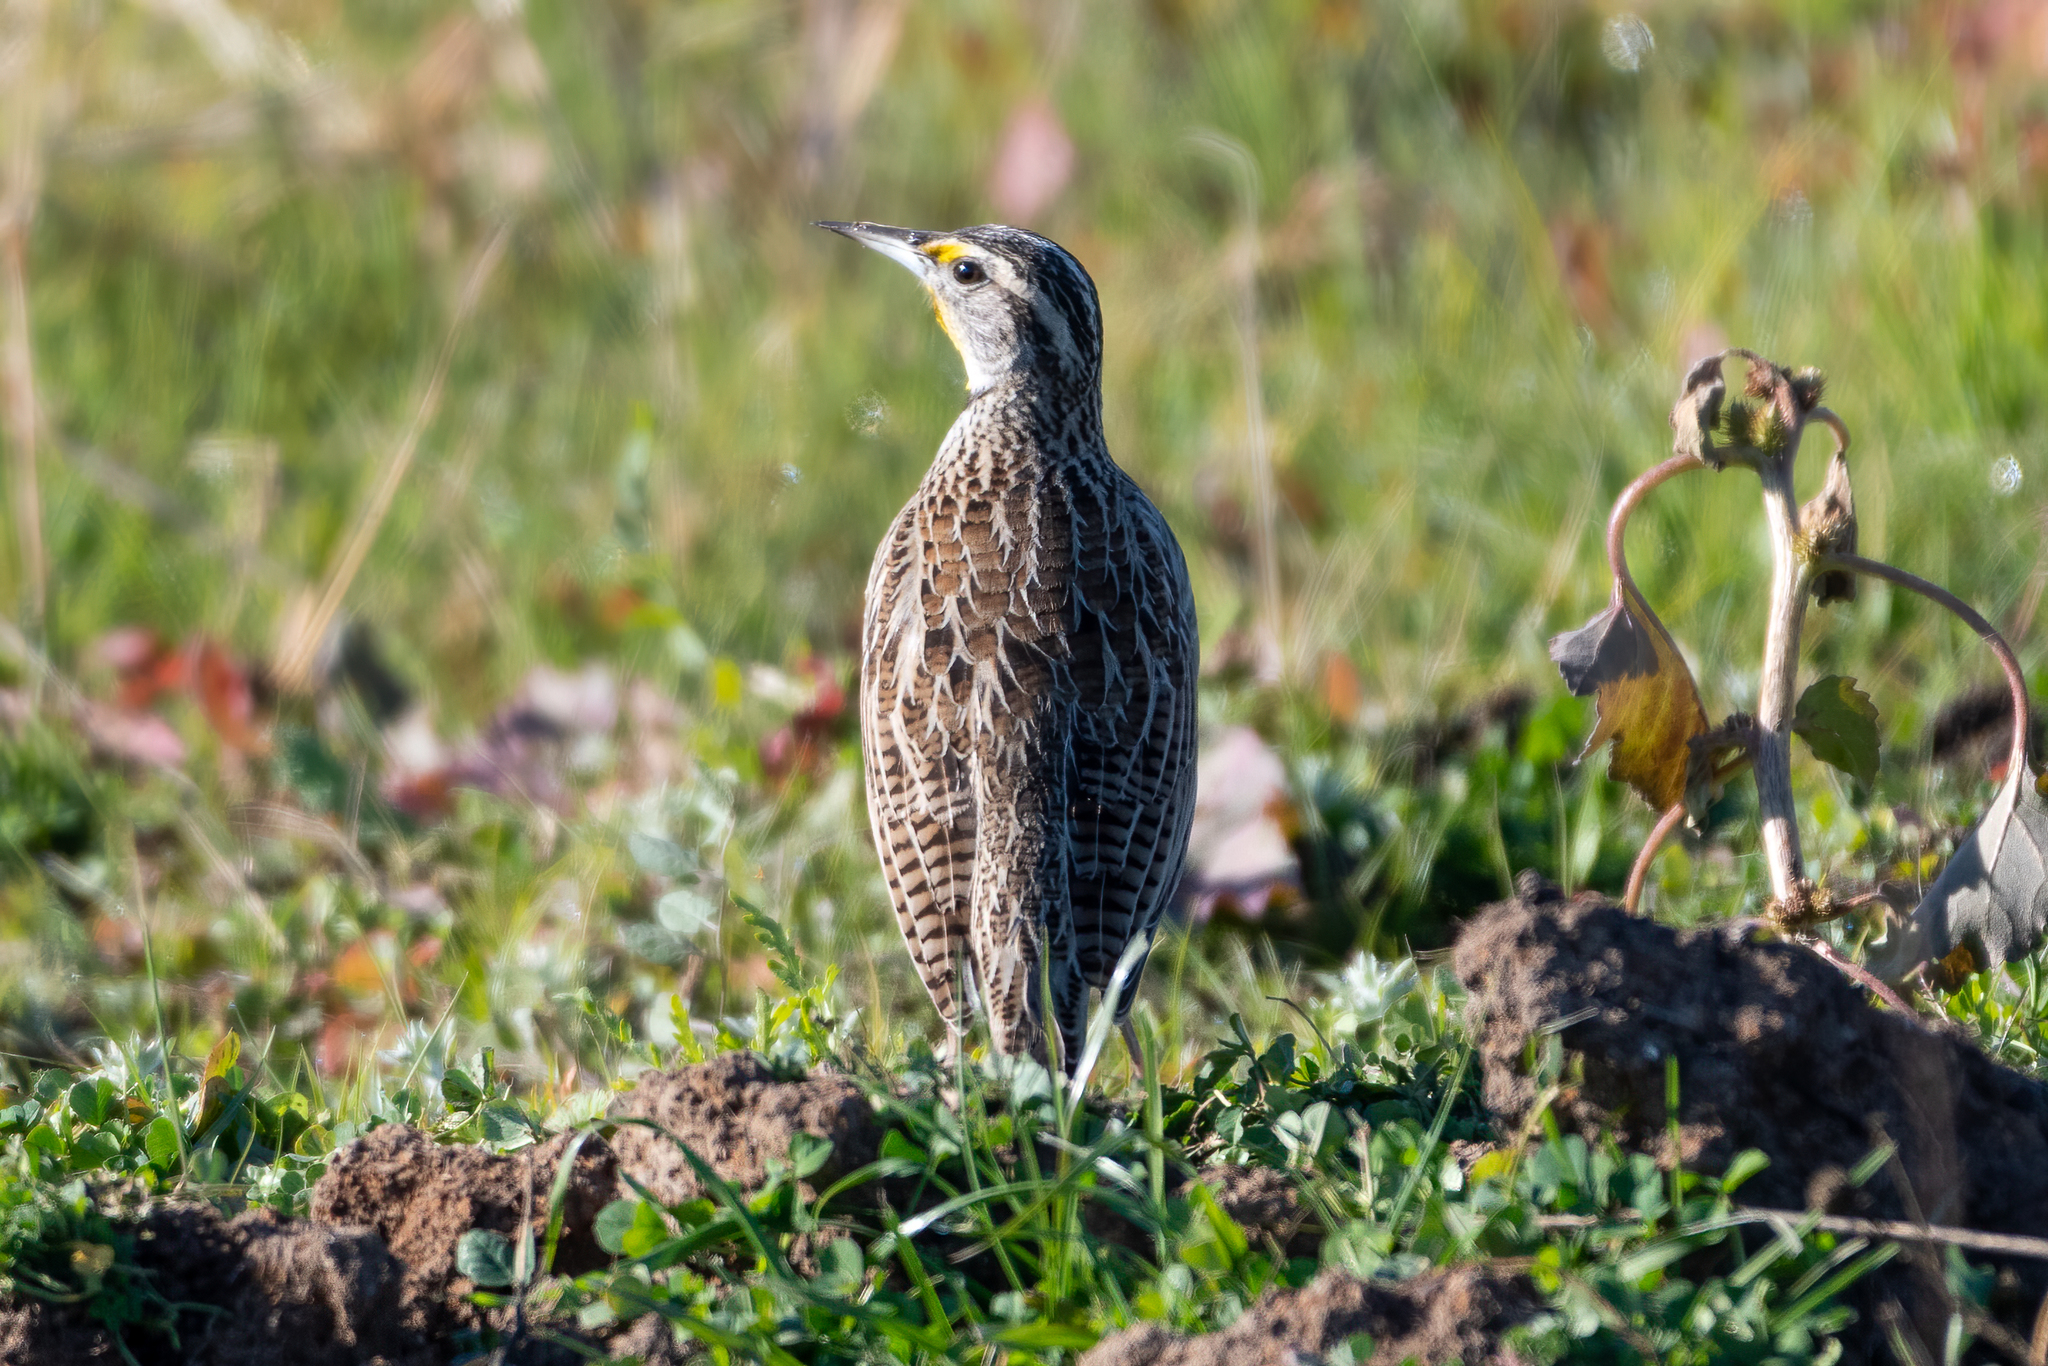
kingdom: Animalia
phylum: Chordata
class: Aves
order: Passeriformes
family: Icteridae
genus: Sturnella
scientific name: Sturnella neglecta
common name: Western meadowlark
